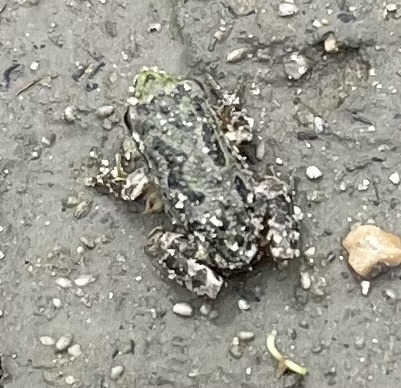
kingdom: Animalia
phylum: Chordata
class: Amphibia
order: Anura
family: Hylidae
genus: Pseudacris
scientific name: Pseudacris regilla
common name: Pacific chorus frog
